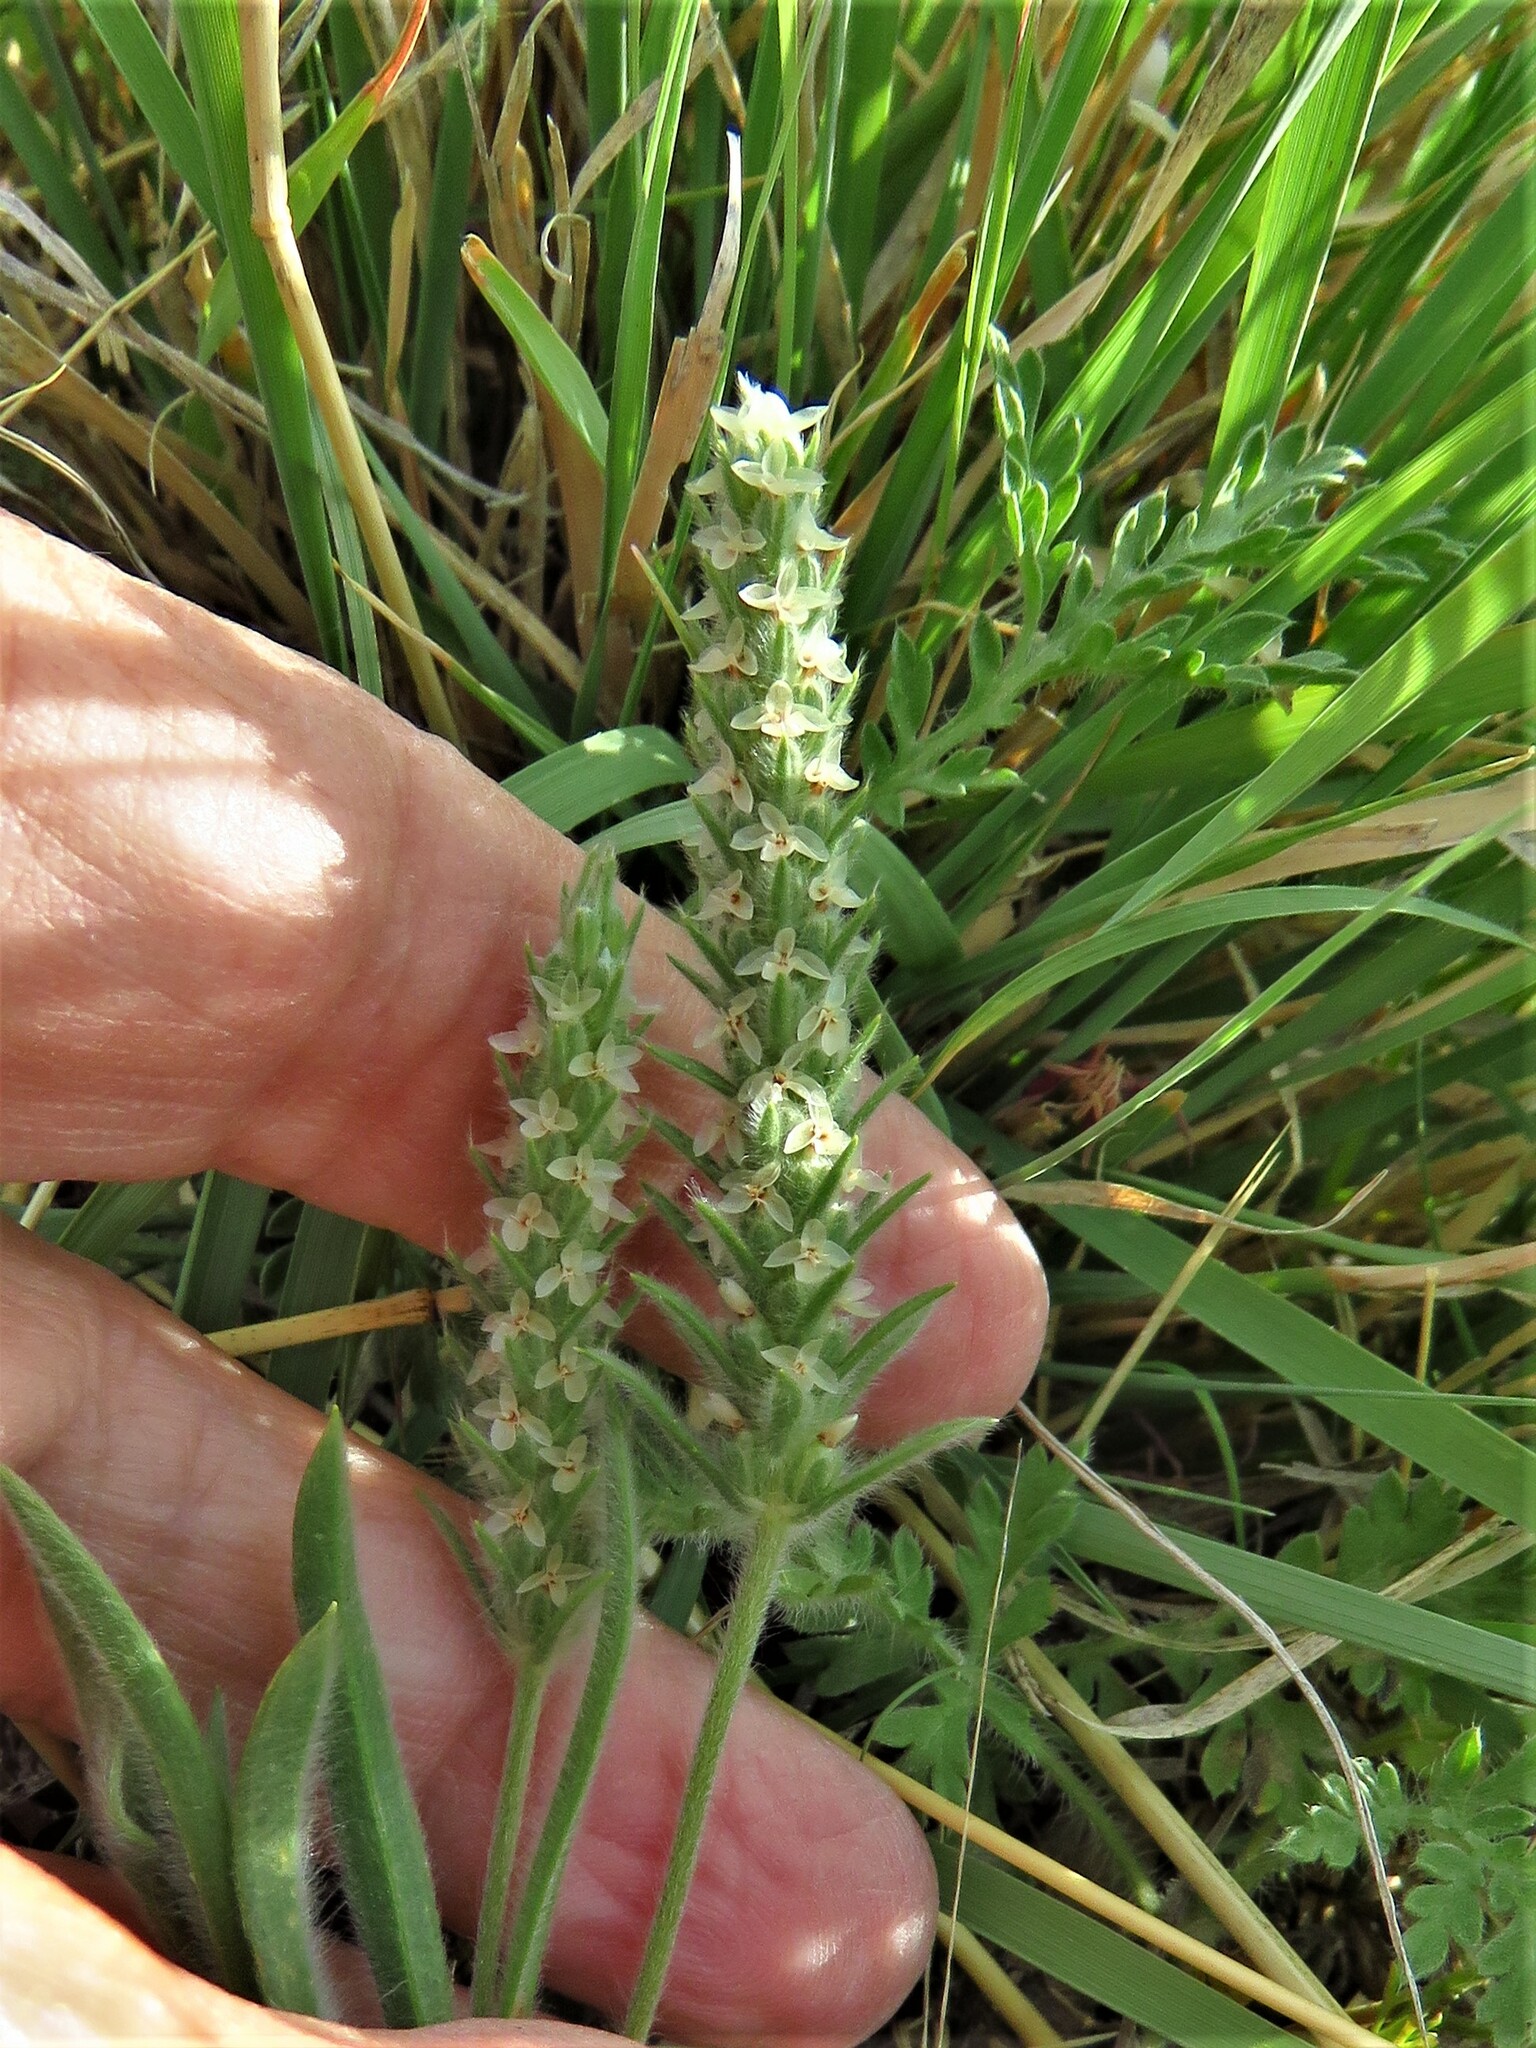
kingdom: Plantae
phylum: Tracheophyta
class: Magnoliopsida
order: Lamiales
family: Plantaginaceae
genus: Plantago
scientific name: Plantago patagonica
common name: Patagonia indian-wheat
